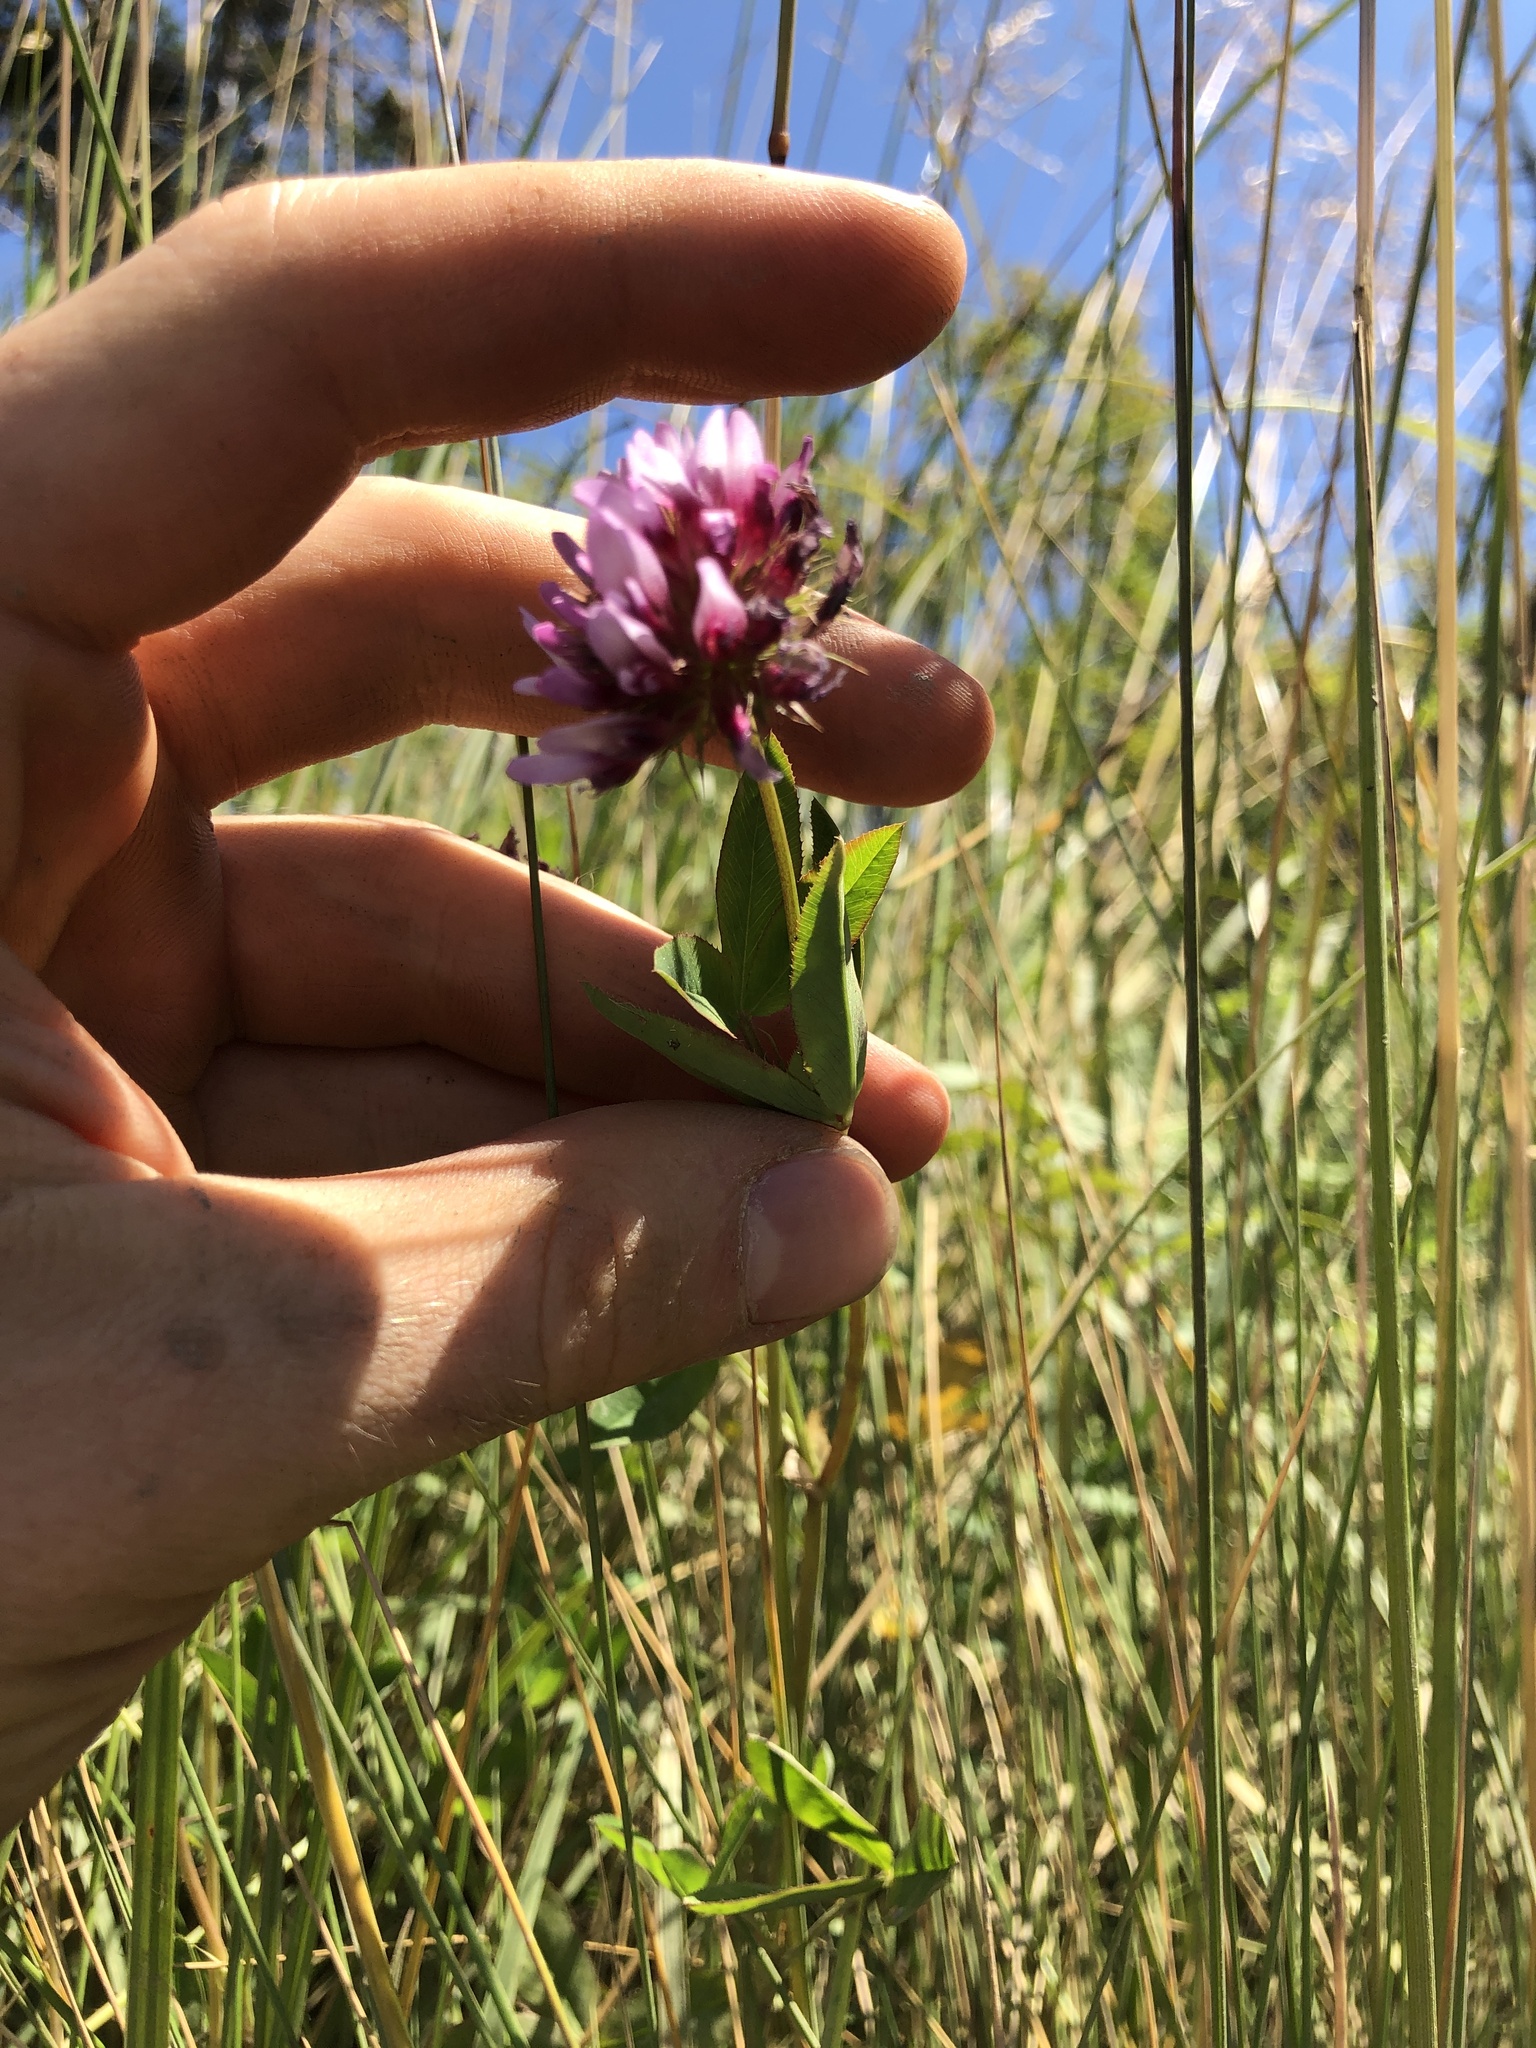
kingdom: Plantae
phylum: Tracheophyta
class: Magnoliopsida
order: Fabales
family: Fabaceae
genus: Trifolium
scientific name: Trifolium wormskioldii
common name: Springbank clover
